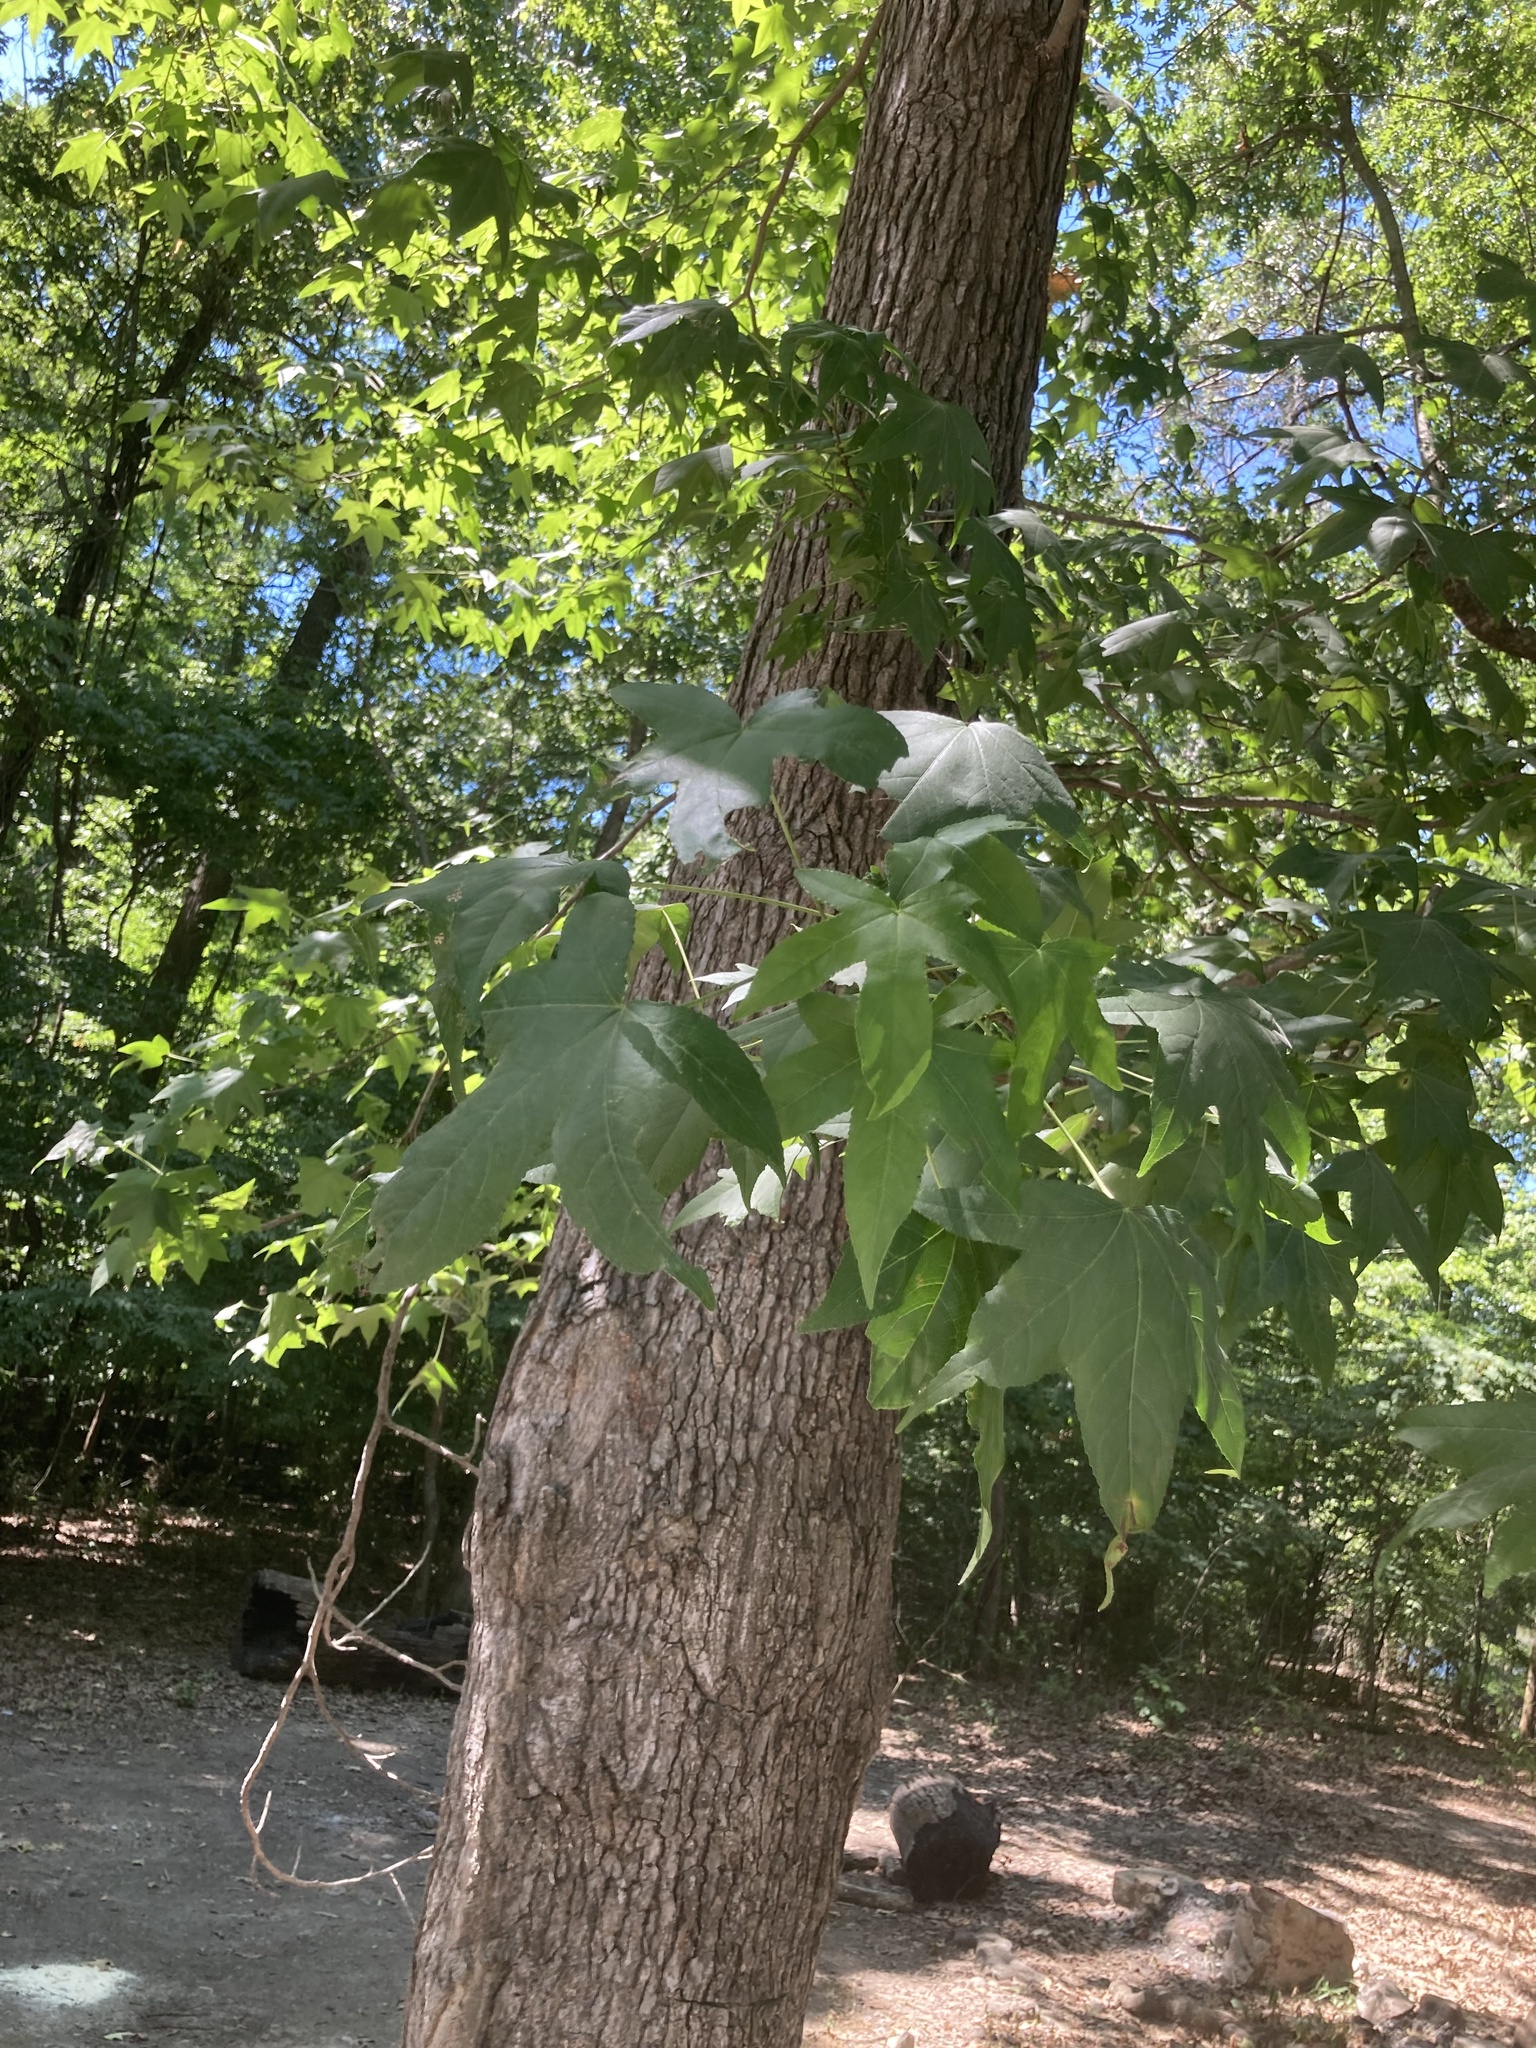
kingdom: Plantae
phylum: Tracheophyta
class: Magnoliopsida
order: Saxifragales
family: Altingiaceae
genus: Liquidambar
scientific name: Liquidambar styraciflua
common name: Sweet gum
